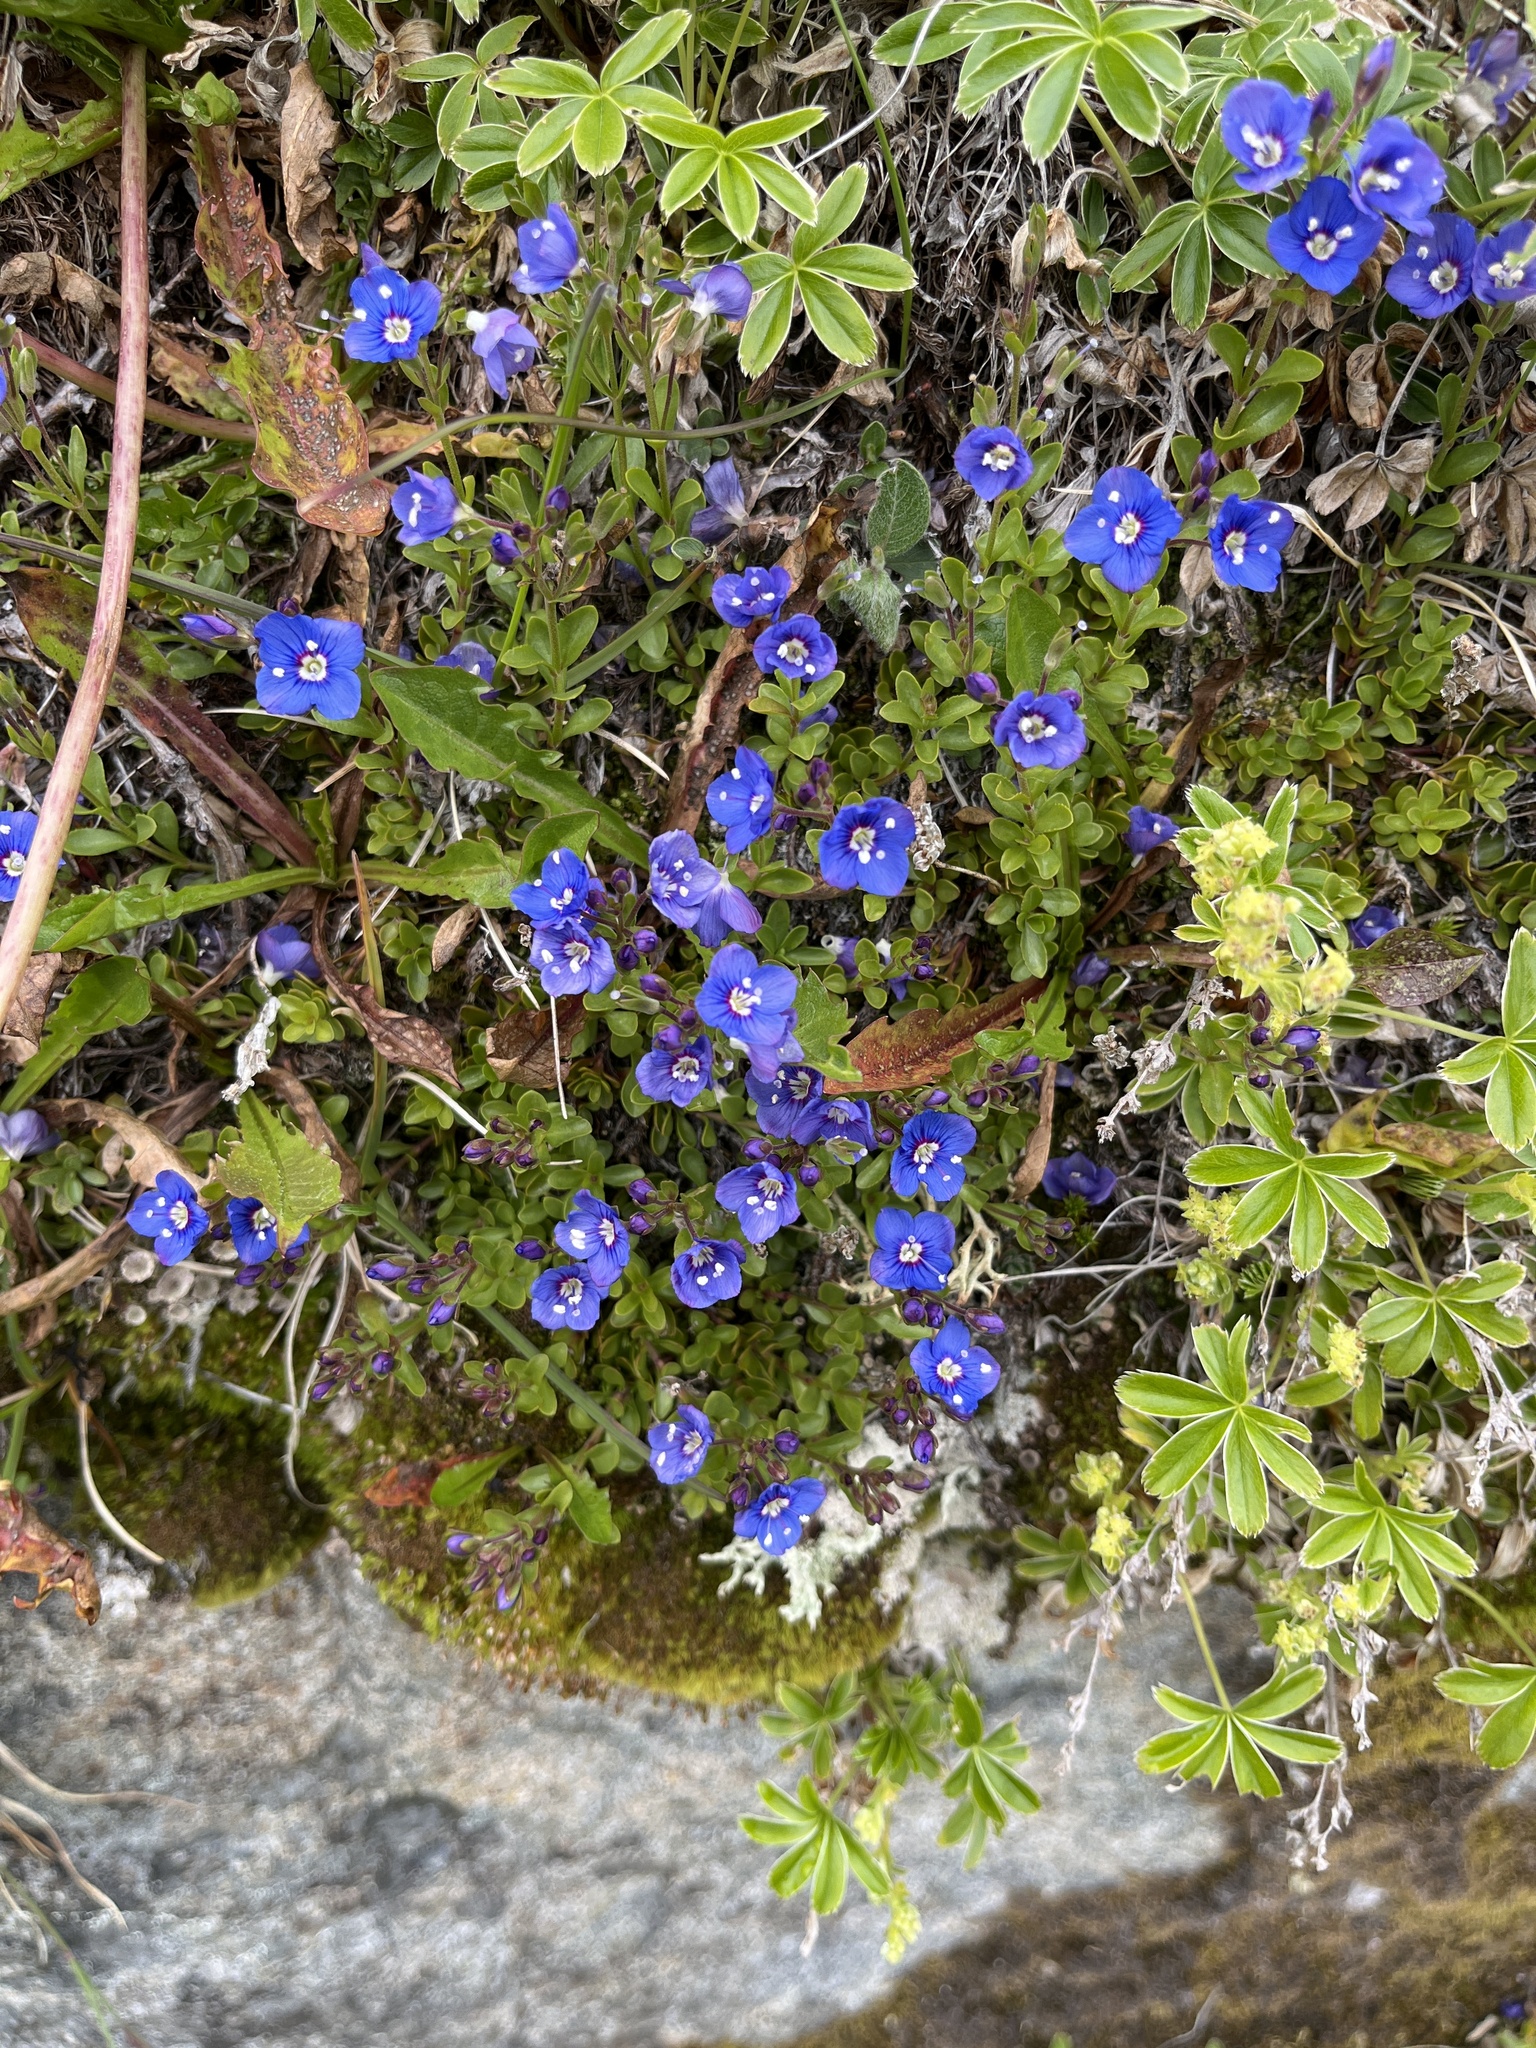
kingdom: Plantae
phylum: Tracheophyta
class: Magnoliopsida
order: Lamiales
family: Plantaginaceae
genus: Veronica
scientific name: Veronica fruticans
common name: Rock speedwell
